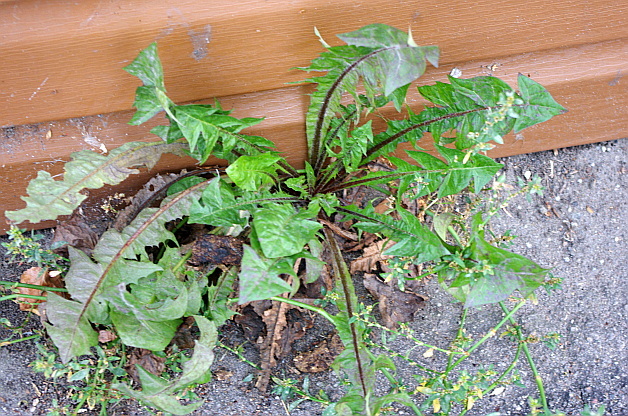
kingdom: Plantae
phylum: Tracheophyta
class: Magnoliopsida
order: Asterales
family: Asteraceae
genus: Taraxacum
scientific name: Taraxacum officinale
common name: Common dandelion
